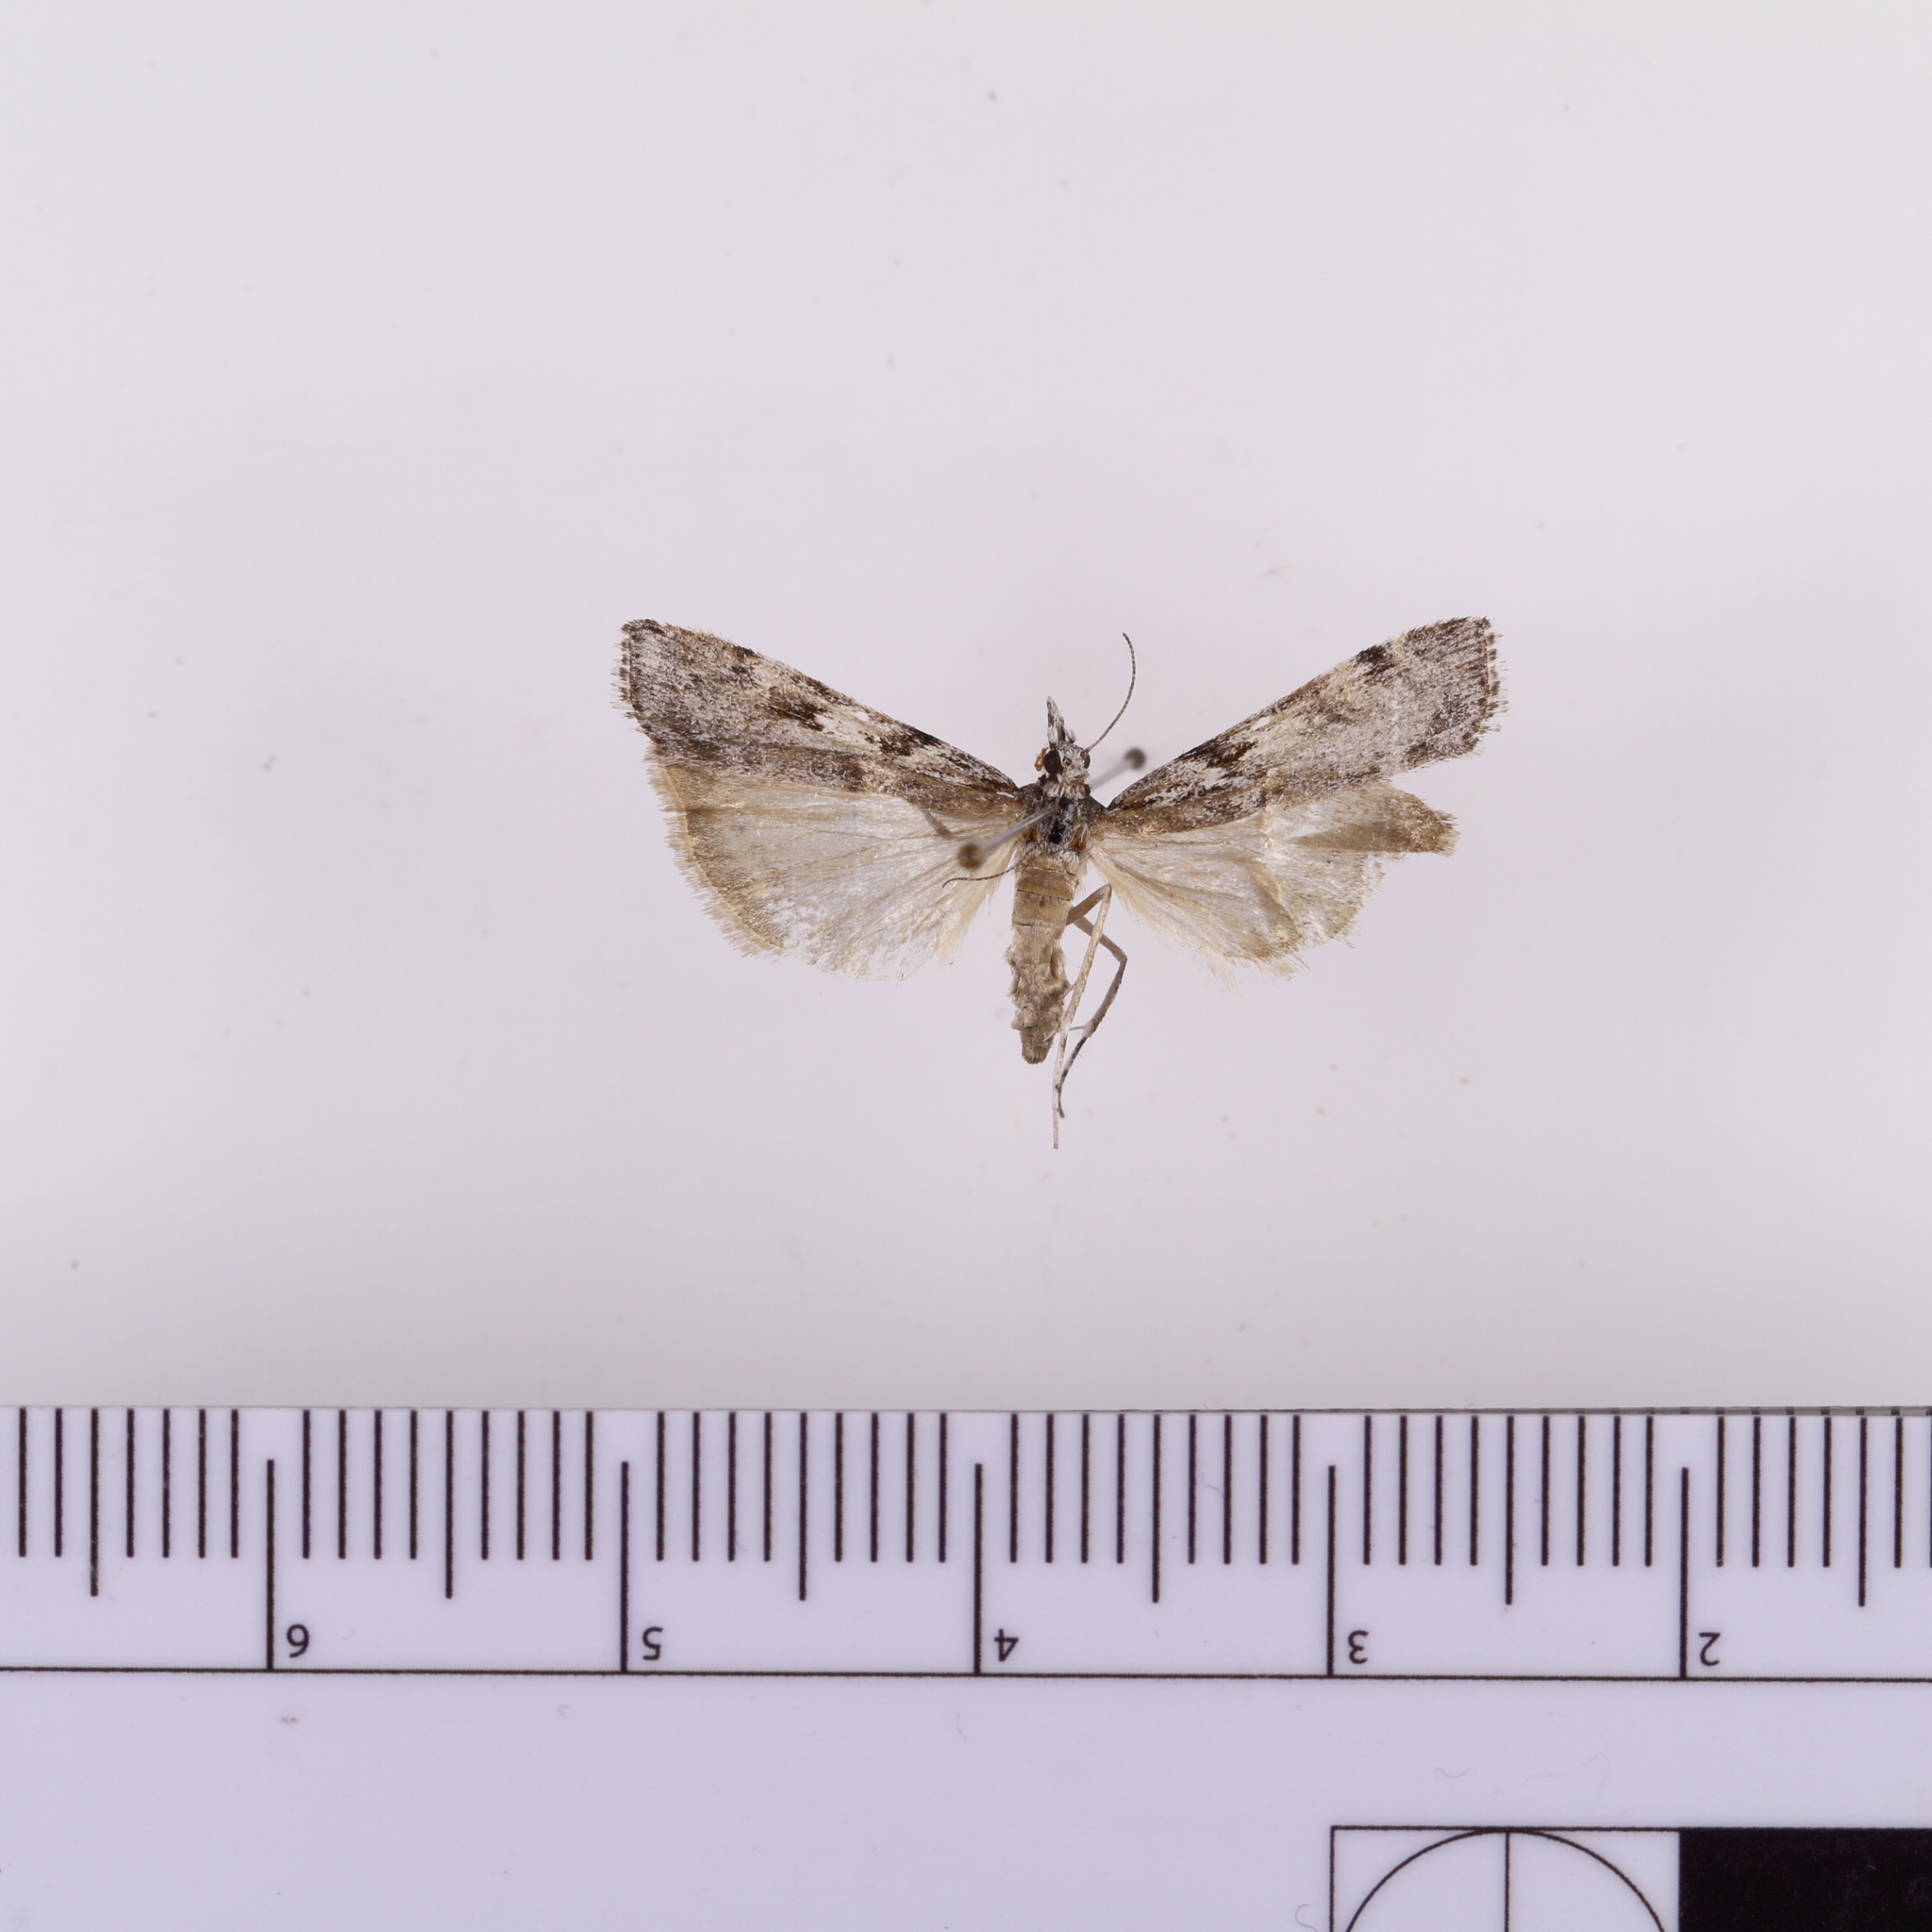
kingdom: Animalia
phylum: Arthropoda
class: Insecta
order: Lepidoptera
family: Crambidae
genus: Scoparia
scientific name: Scoparia halopis
